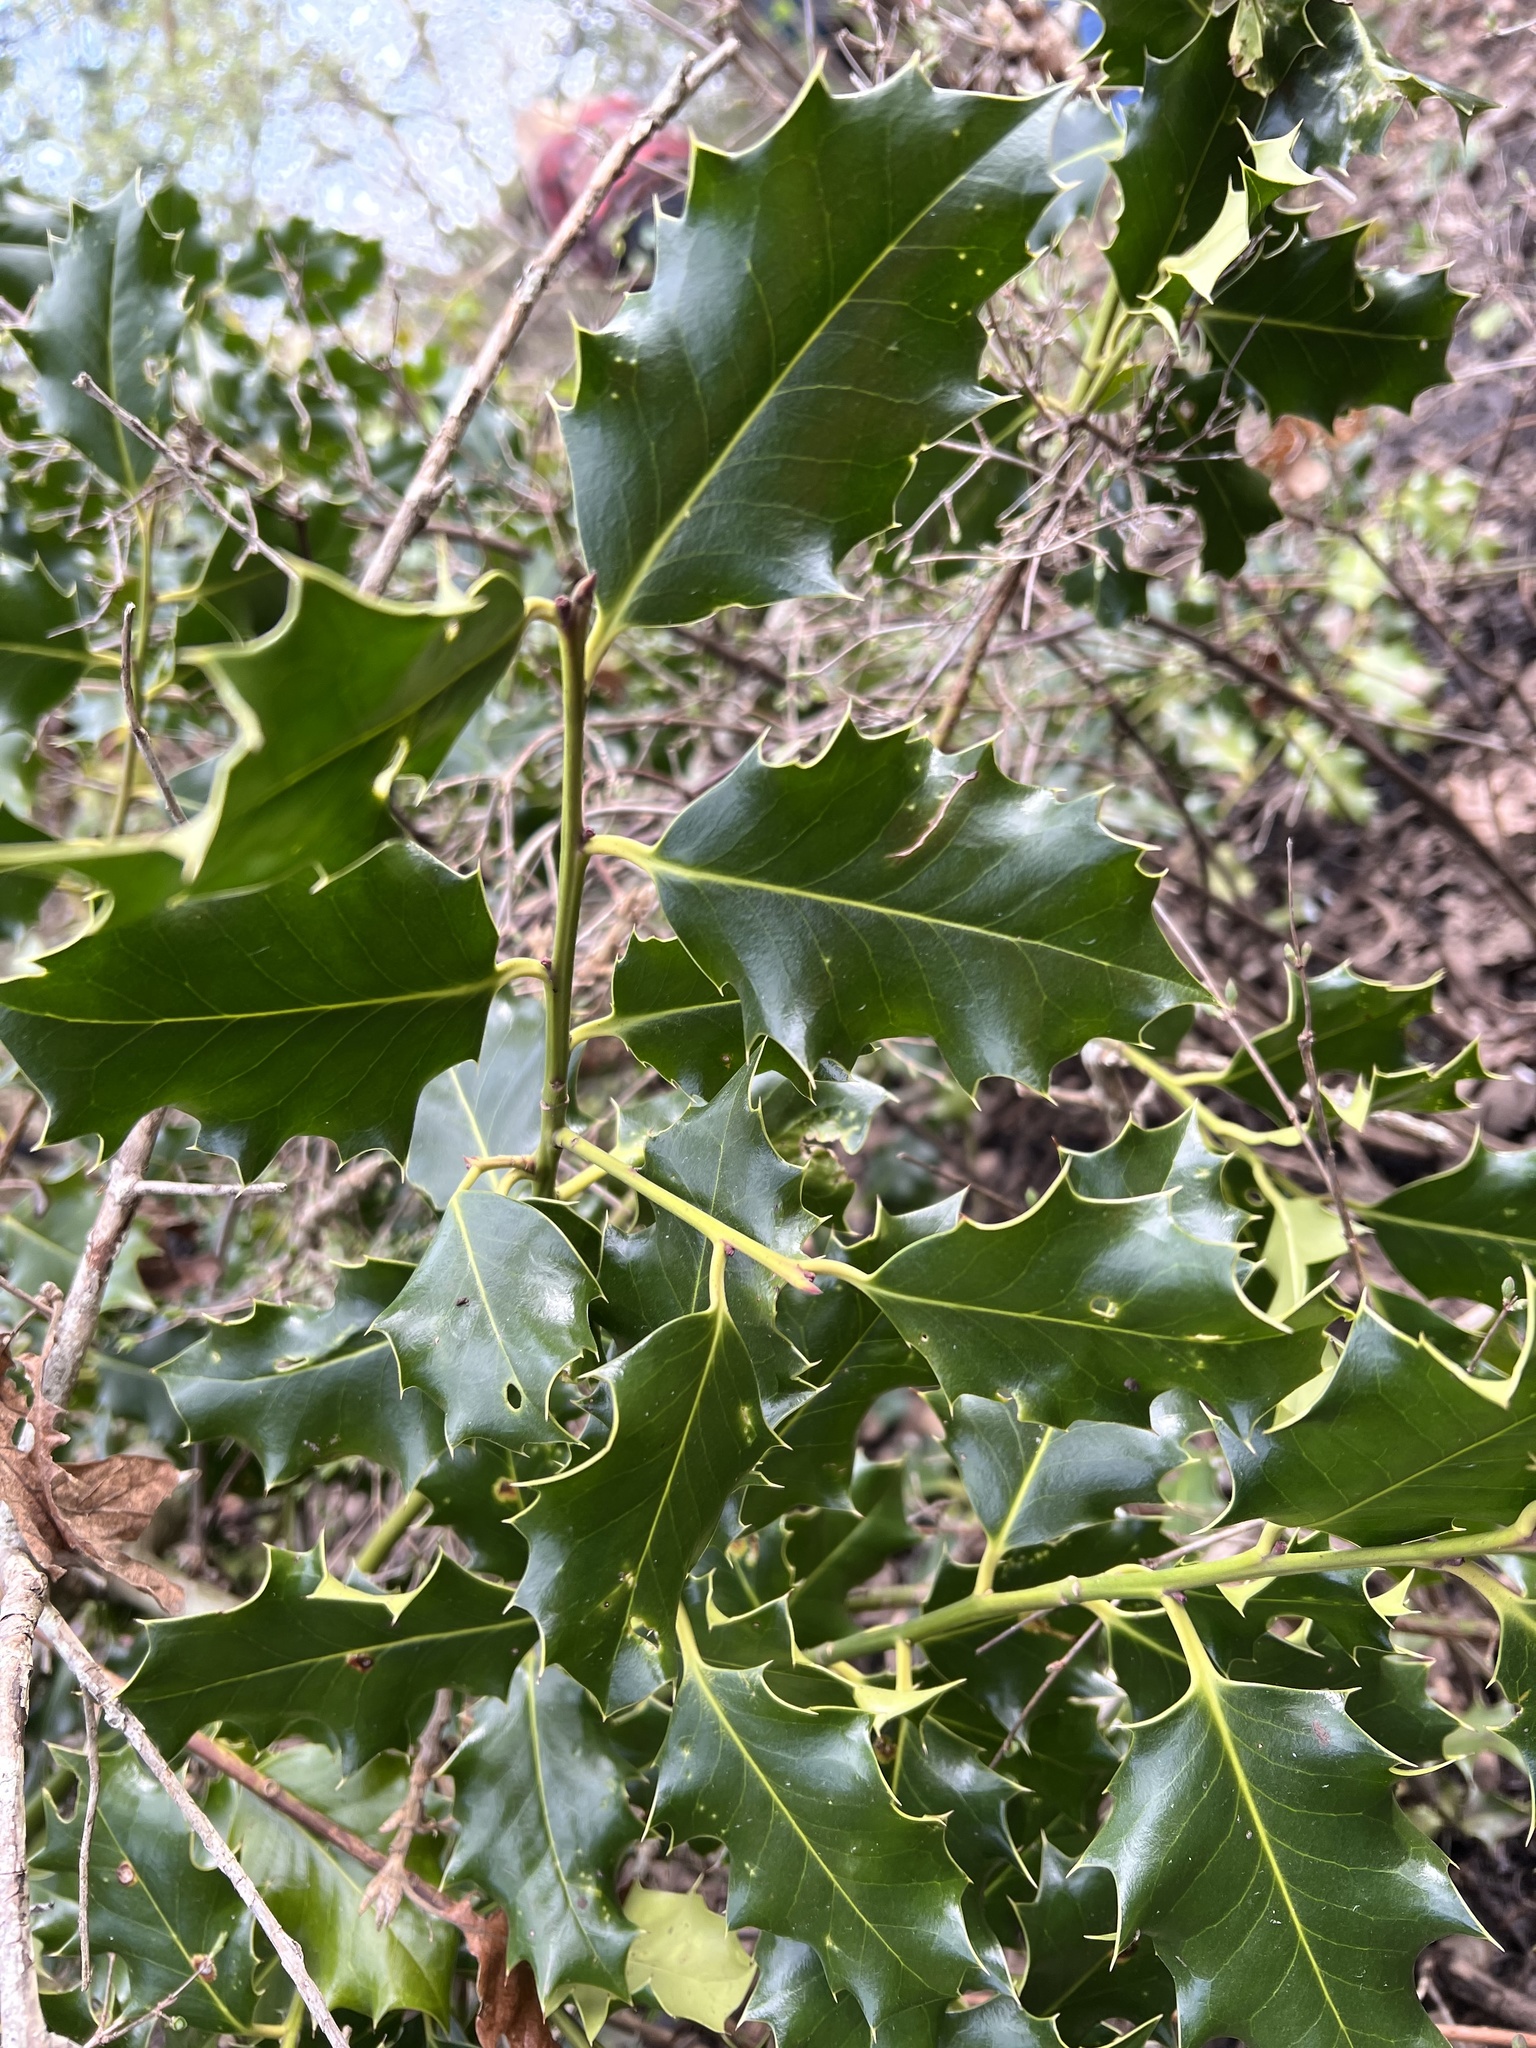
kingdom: Plantae
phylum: Tracheophyta
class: Magnoliopsida
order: Aquifoliales
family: Aquifoliaceae
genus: Ilex
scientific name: Ilex aquifolium
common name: English holly
